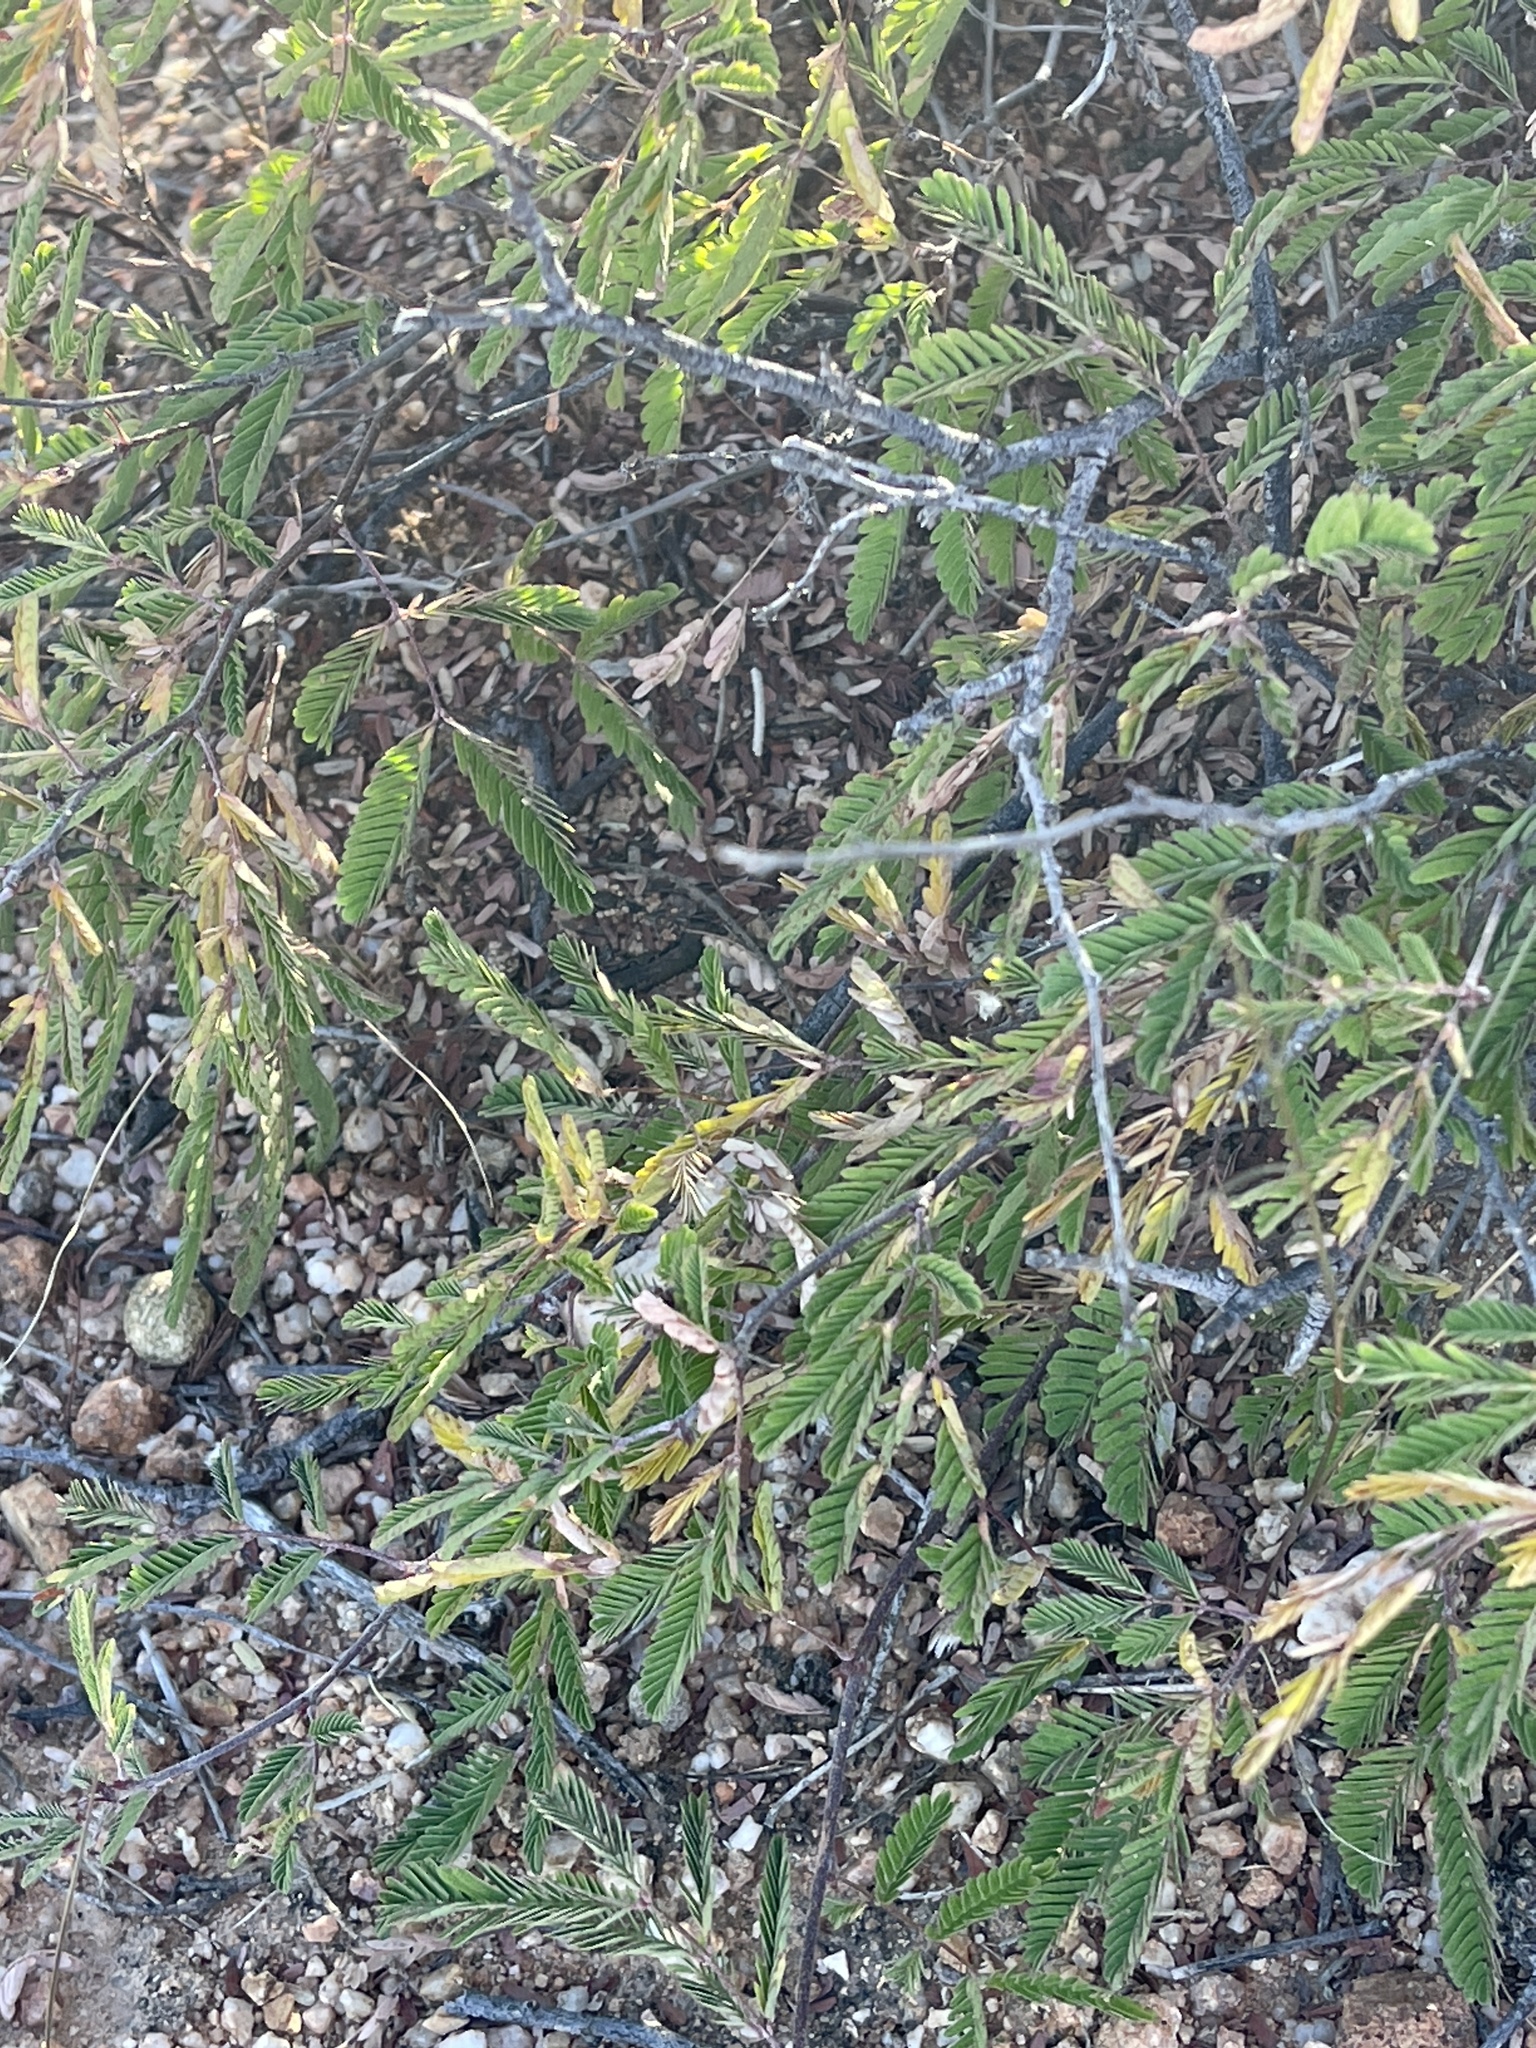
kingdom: Plantae
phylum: Tracheophyta
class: Magnoliopsida
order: Fabales
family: Fabaceae
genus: Calliandra
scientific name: Calliandra eriophylla
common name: Fairy-duster
